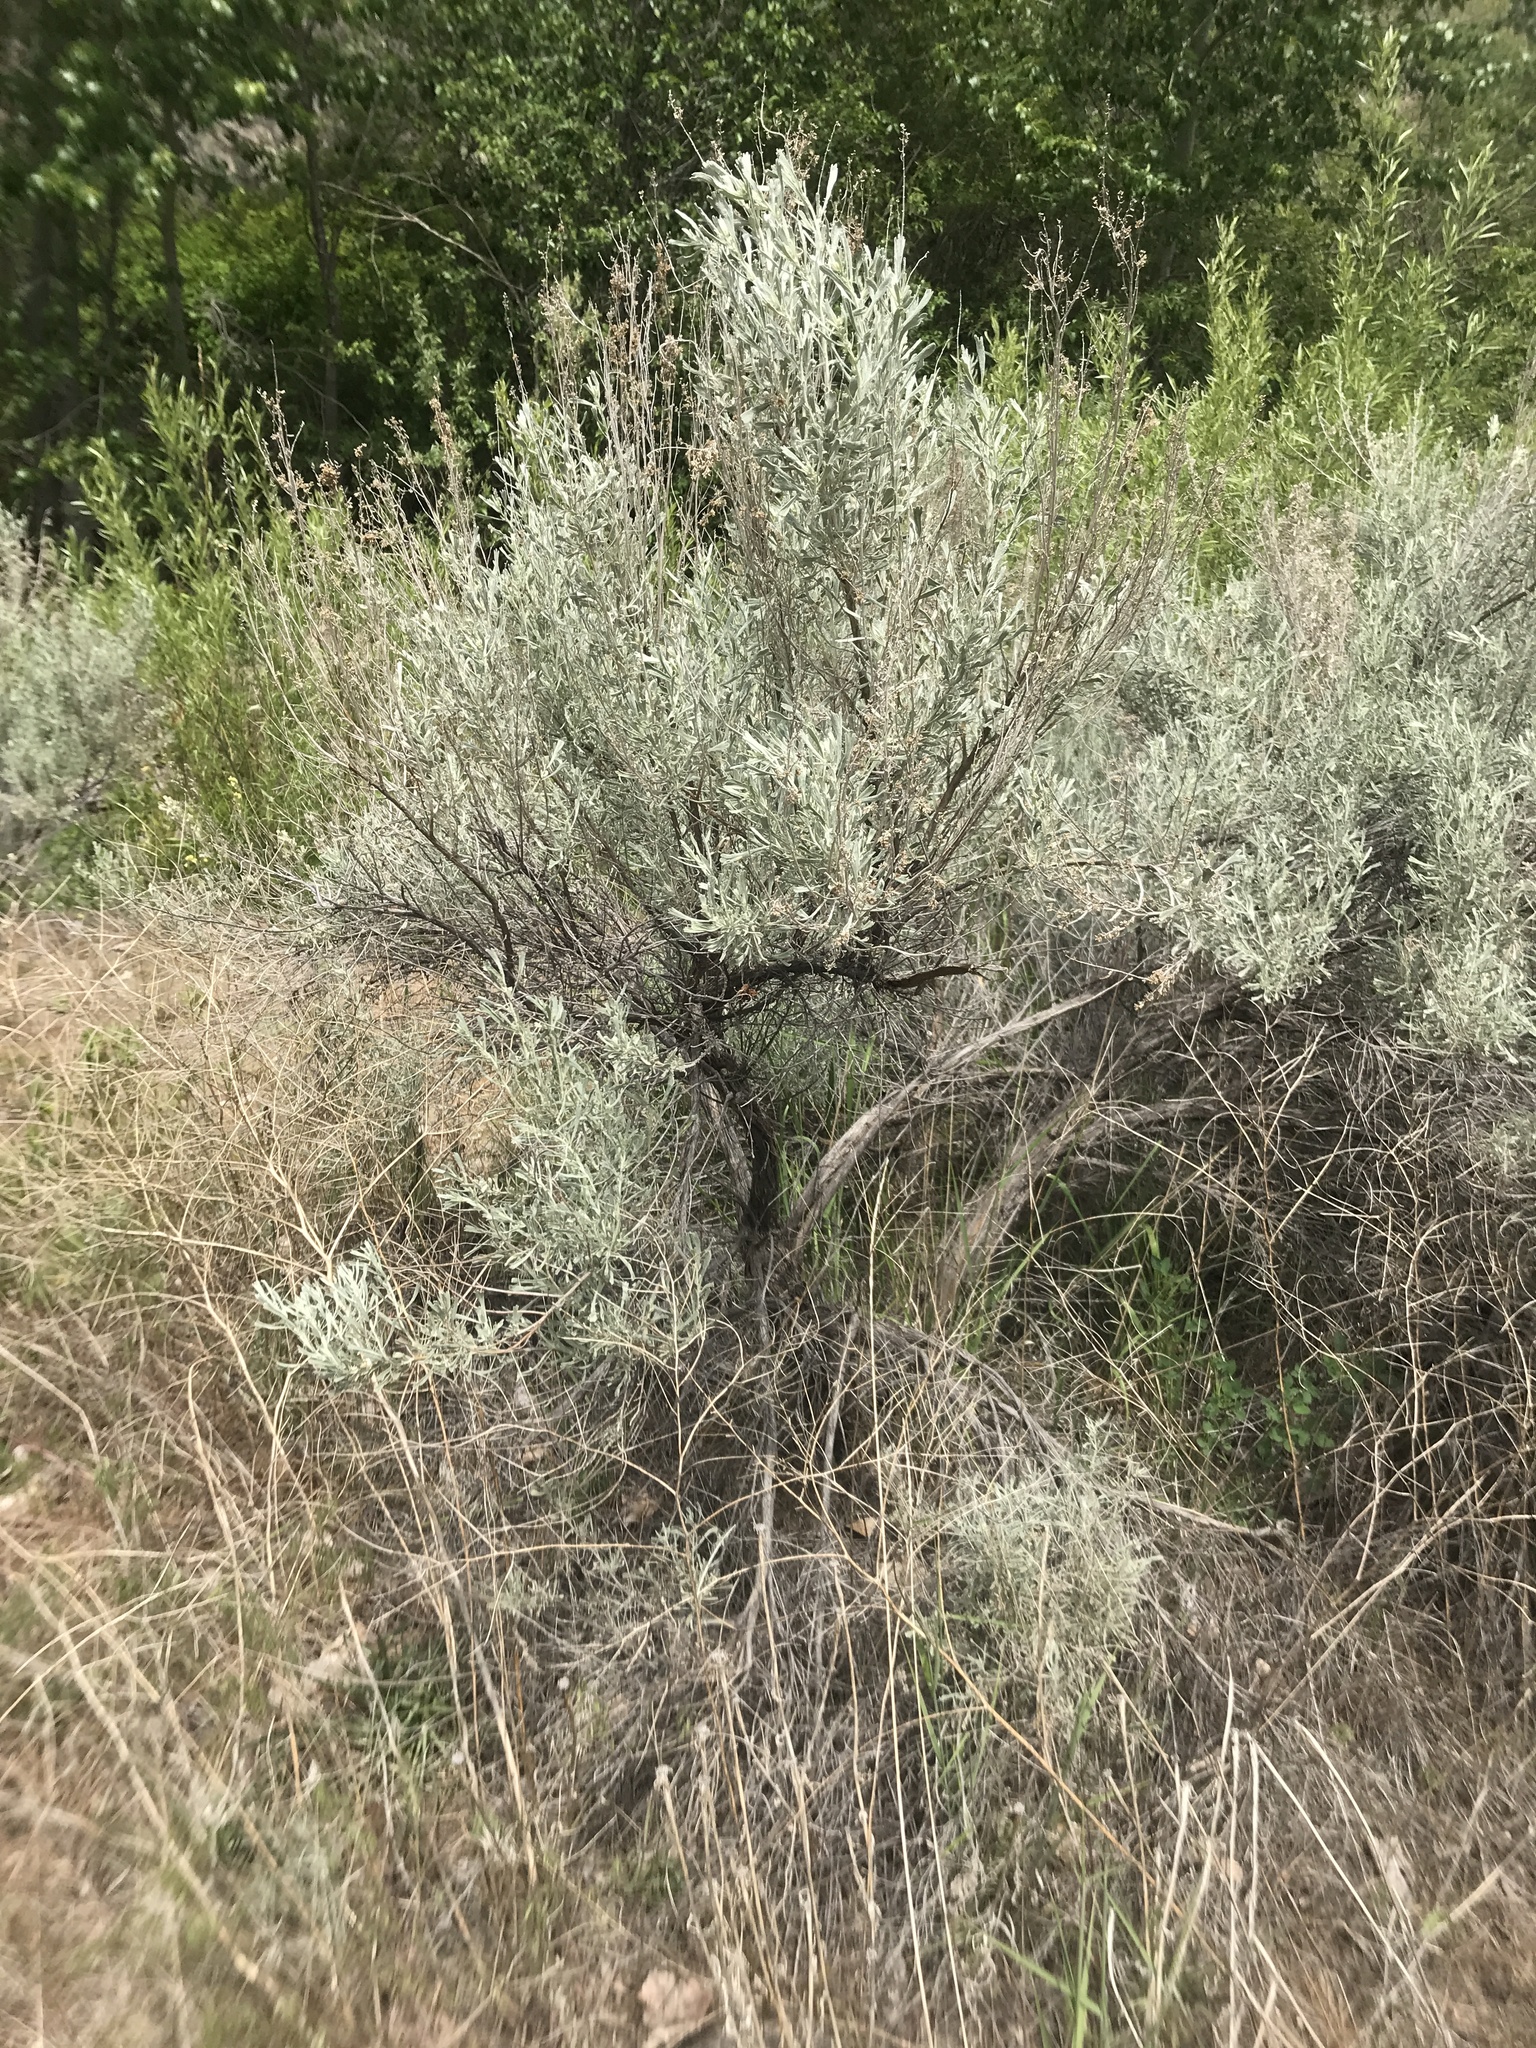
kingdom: Plantae
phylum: Tracheophyta
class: Magnoliopsida
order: Asterales
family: Asteraceae
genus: Artemisia
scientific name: Artemisia tridentata
